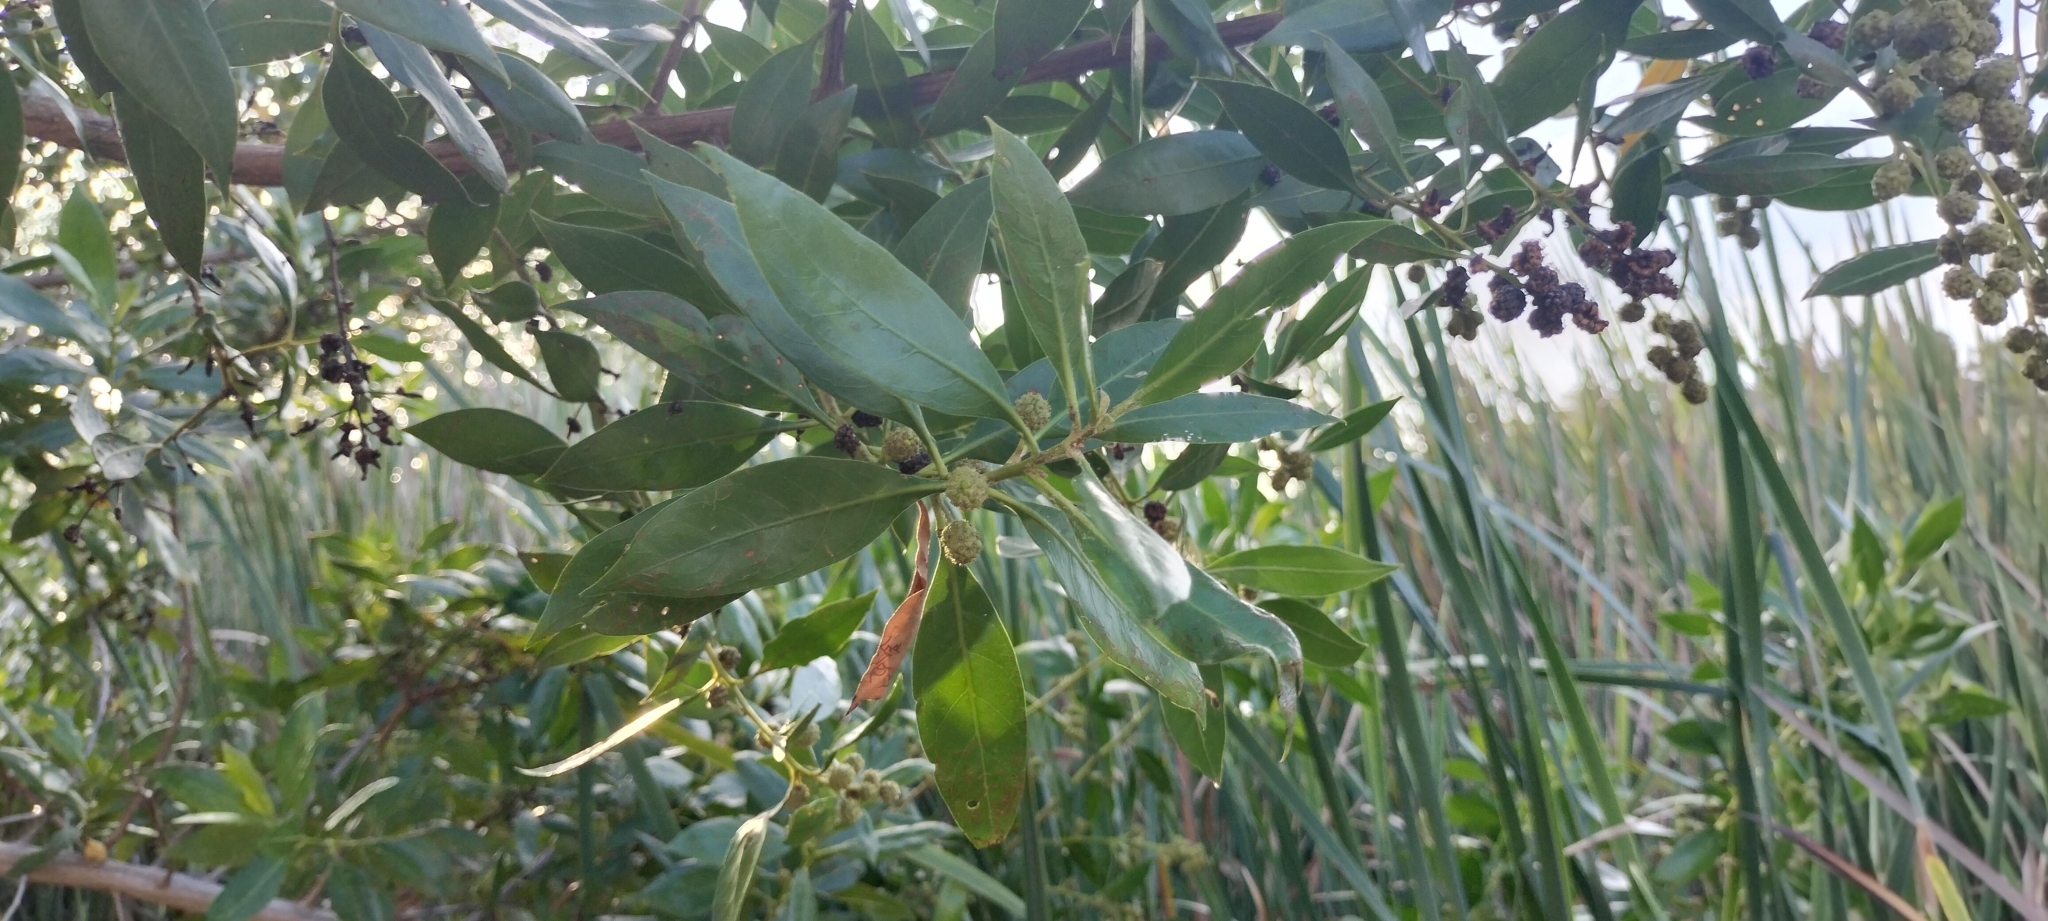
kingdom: Plantae
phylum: Tracheophyta
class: Magnoliopsida
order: Myrtales
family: Combretaceae
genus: Conocarpus
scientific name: Conocarpus erectus
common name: Button mangrove
